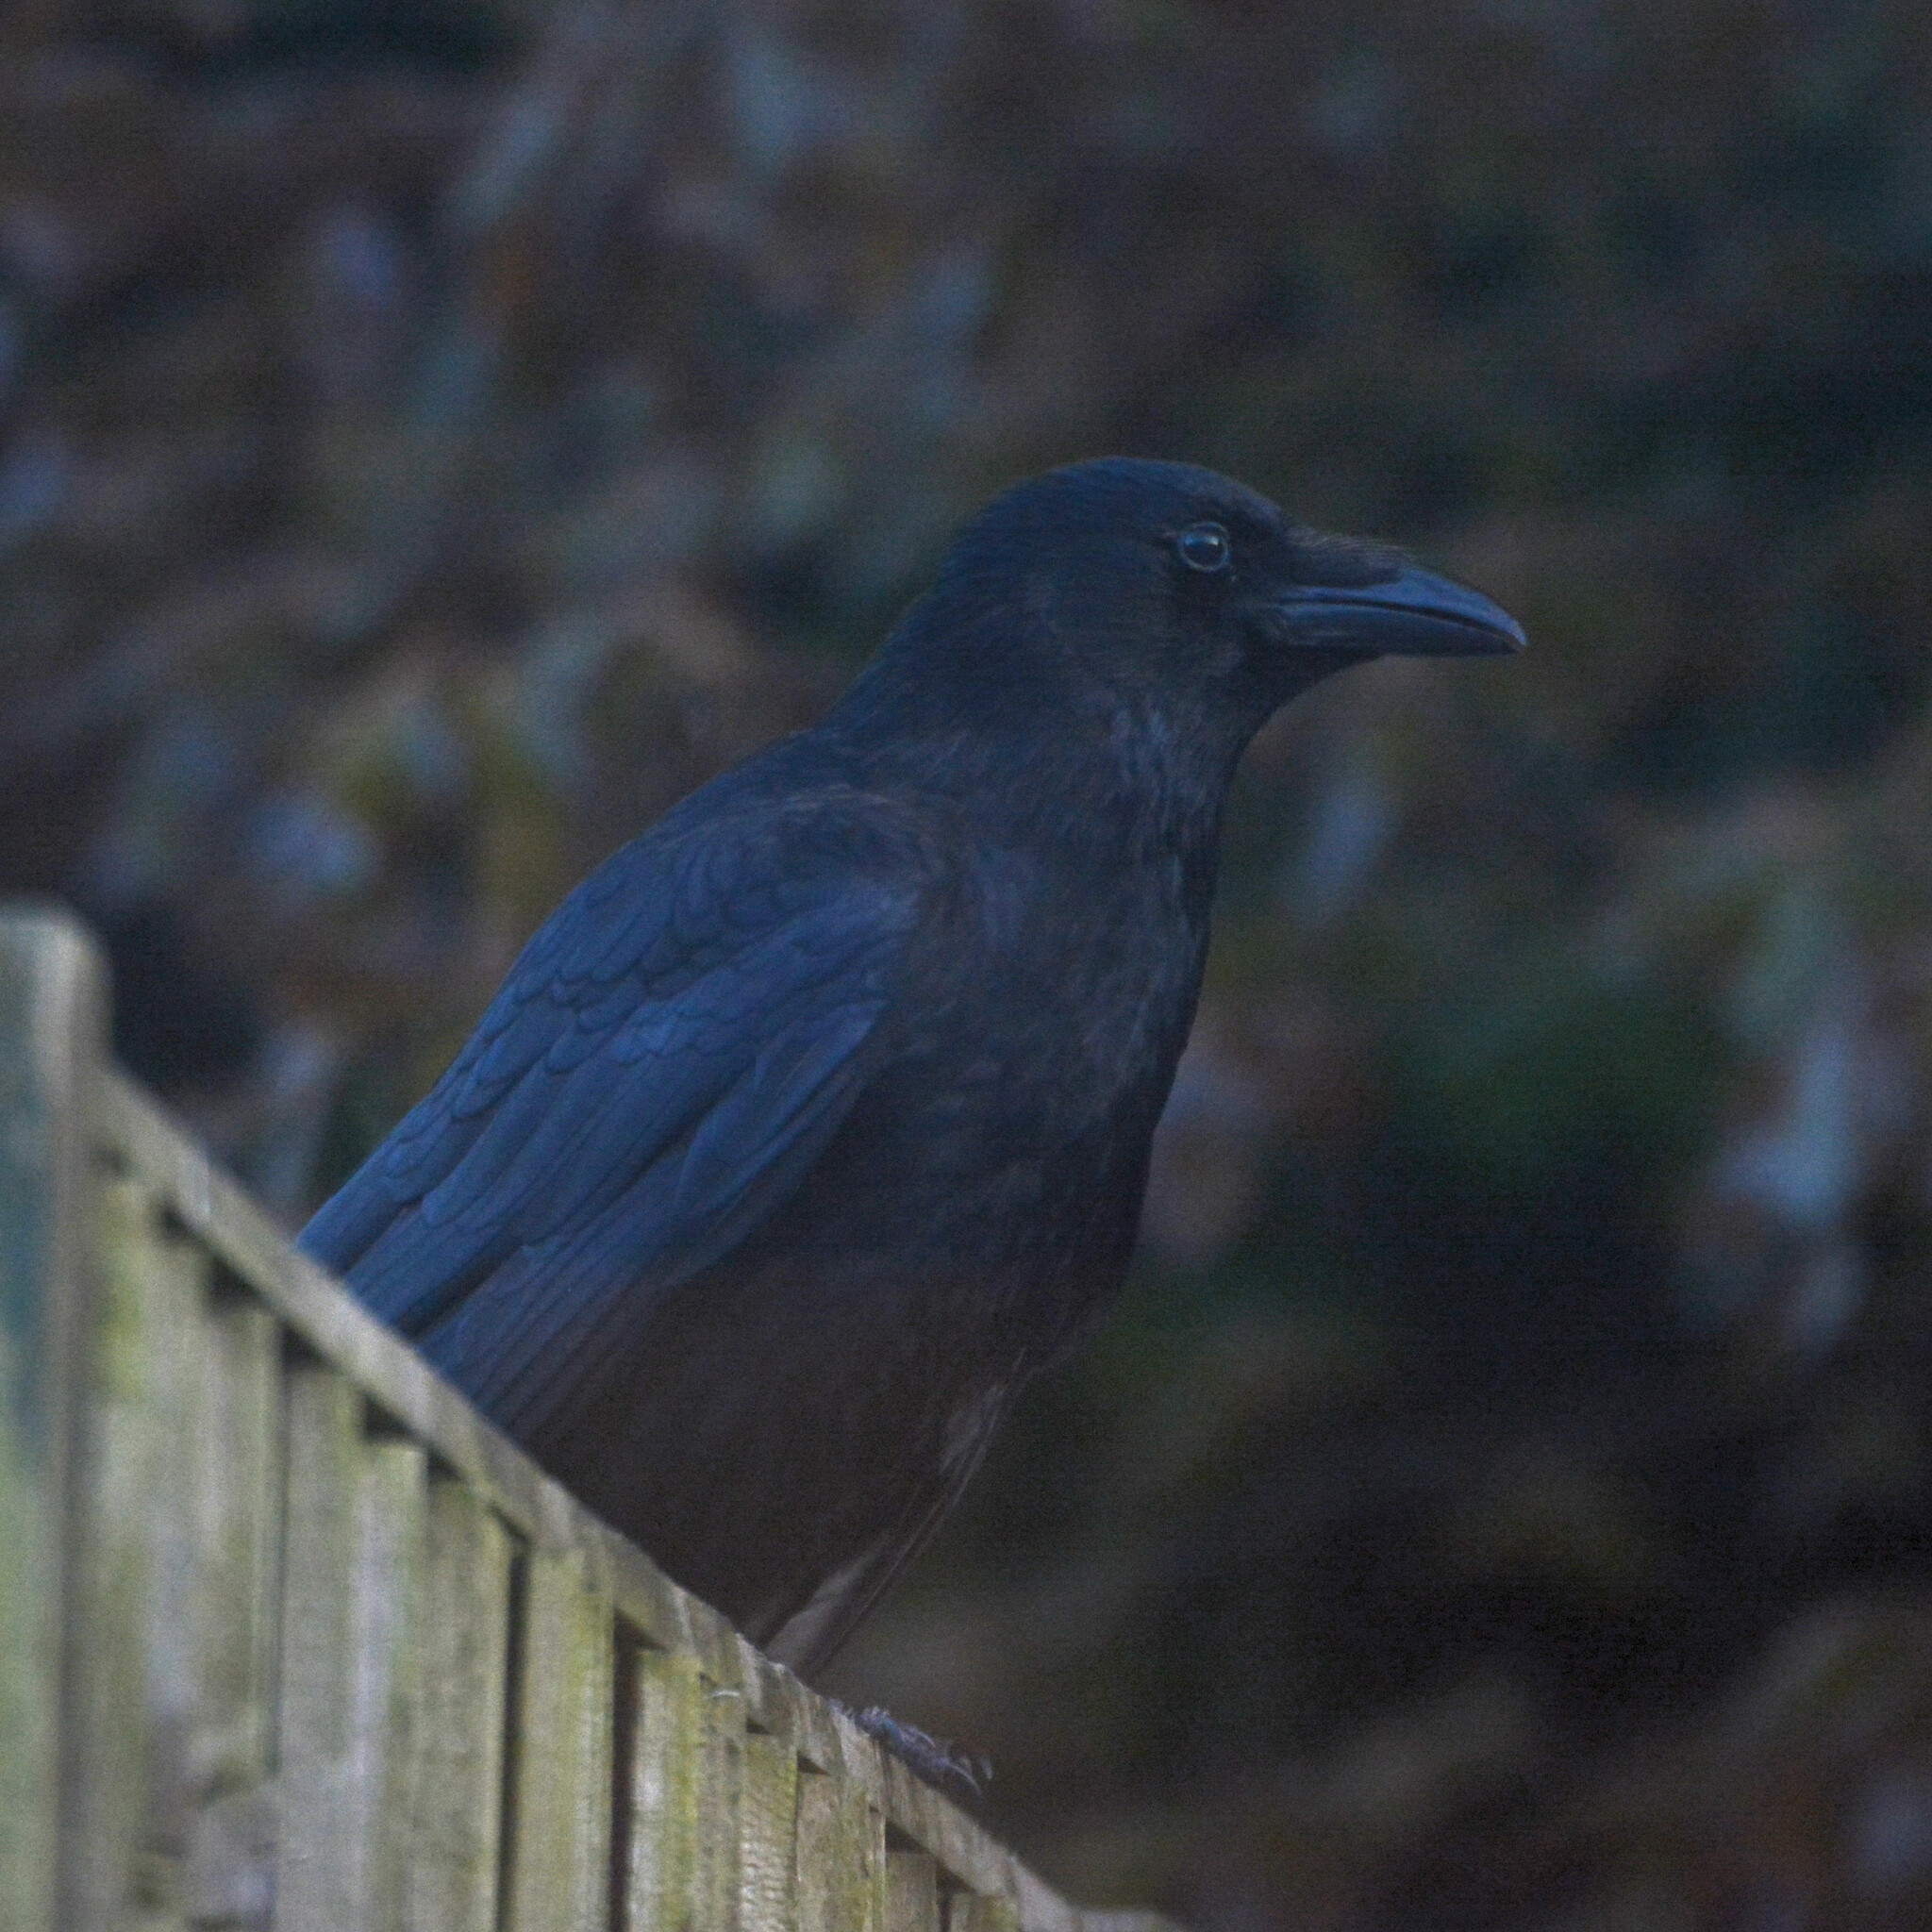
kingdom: Animalia
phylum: Chordata
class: Aves
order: Passeriformes
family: Corvidae
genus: Corvus
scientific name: Corvus corone
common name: Carrion crow
